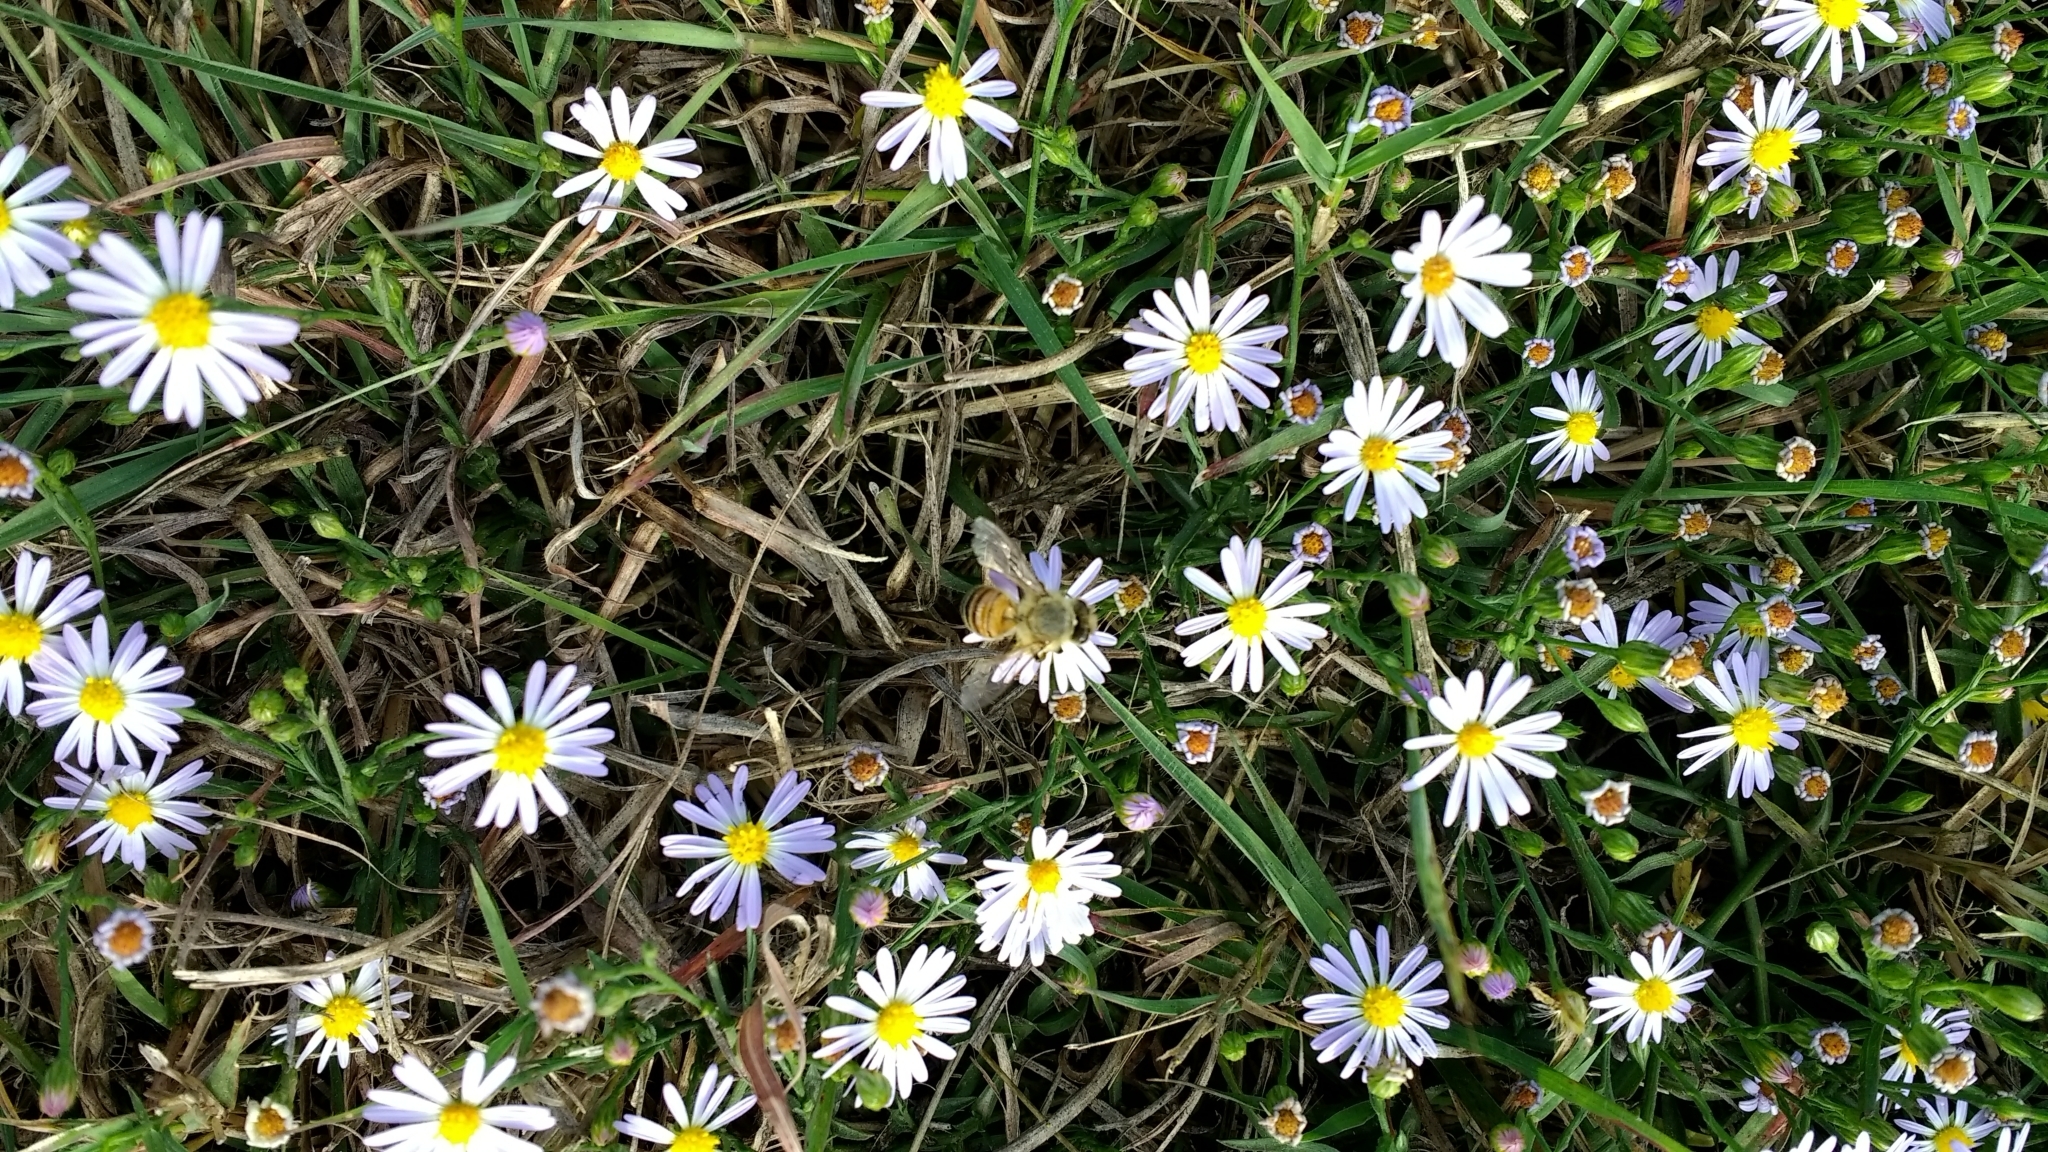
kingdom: Animalia
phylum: Arthropoda
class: Insecta
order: Hymenoptera
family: Apidae
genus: Apis
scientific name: Apis mellifera
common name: Honey bee
